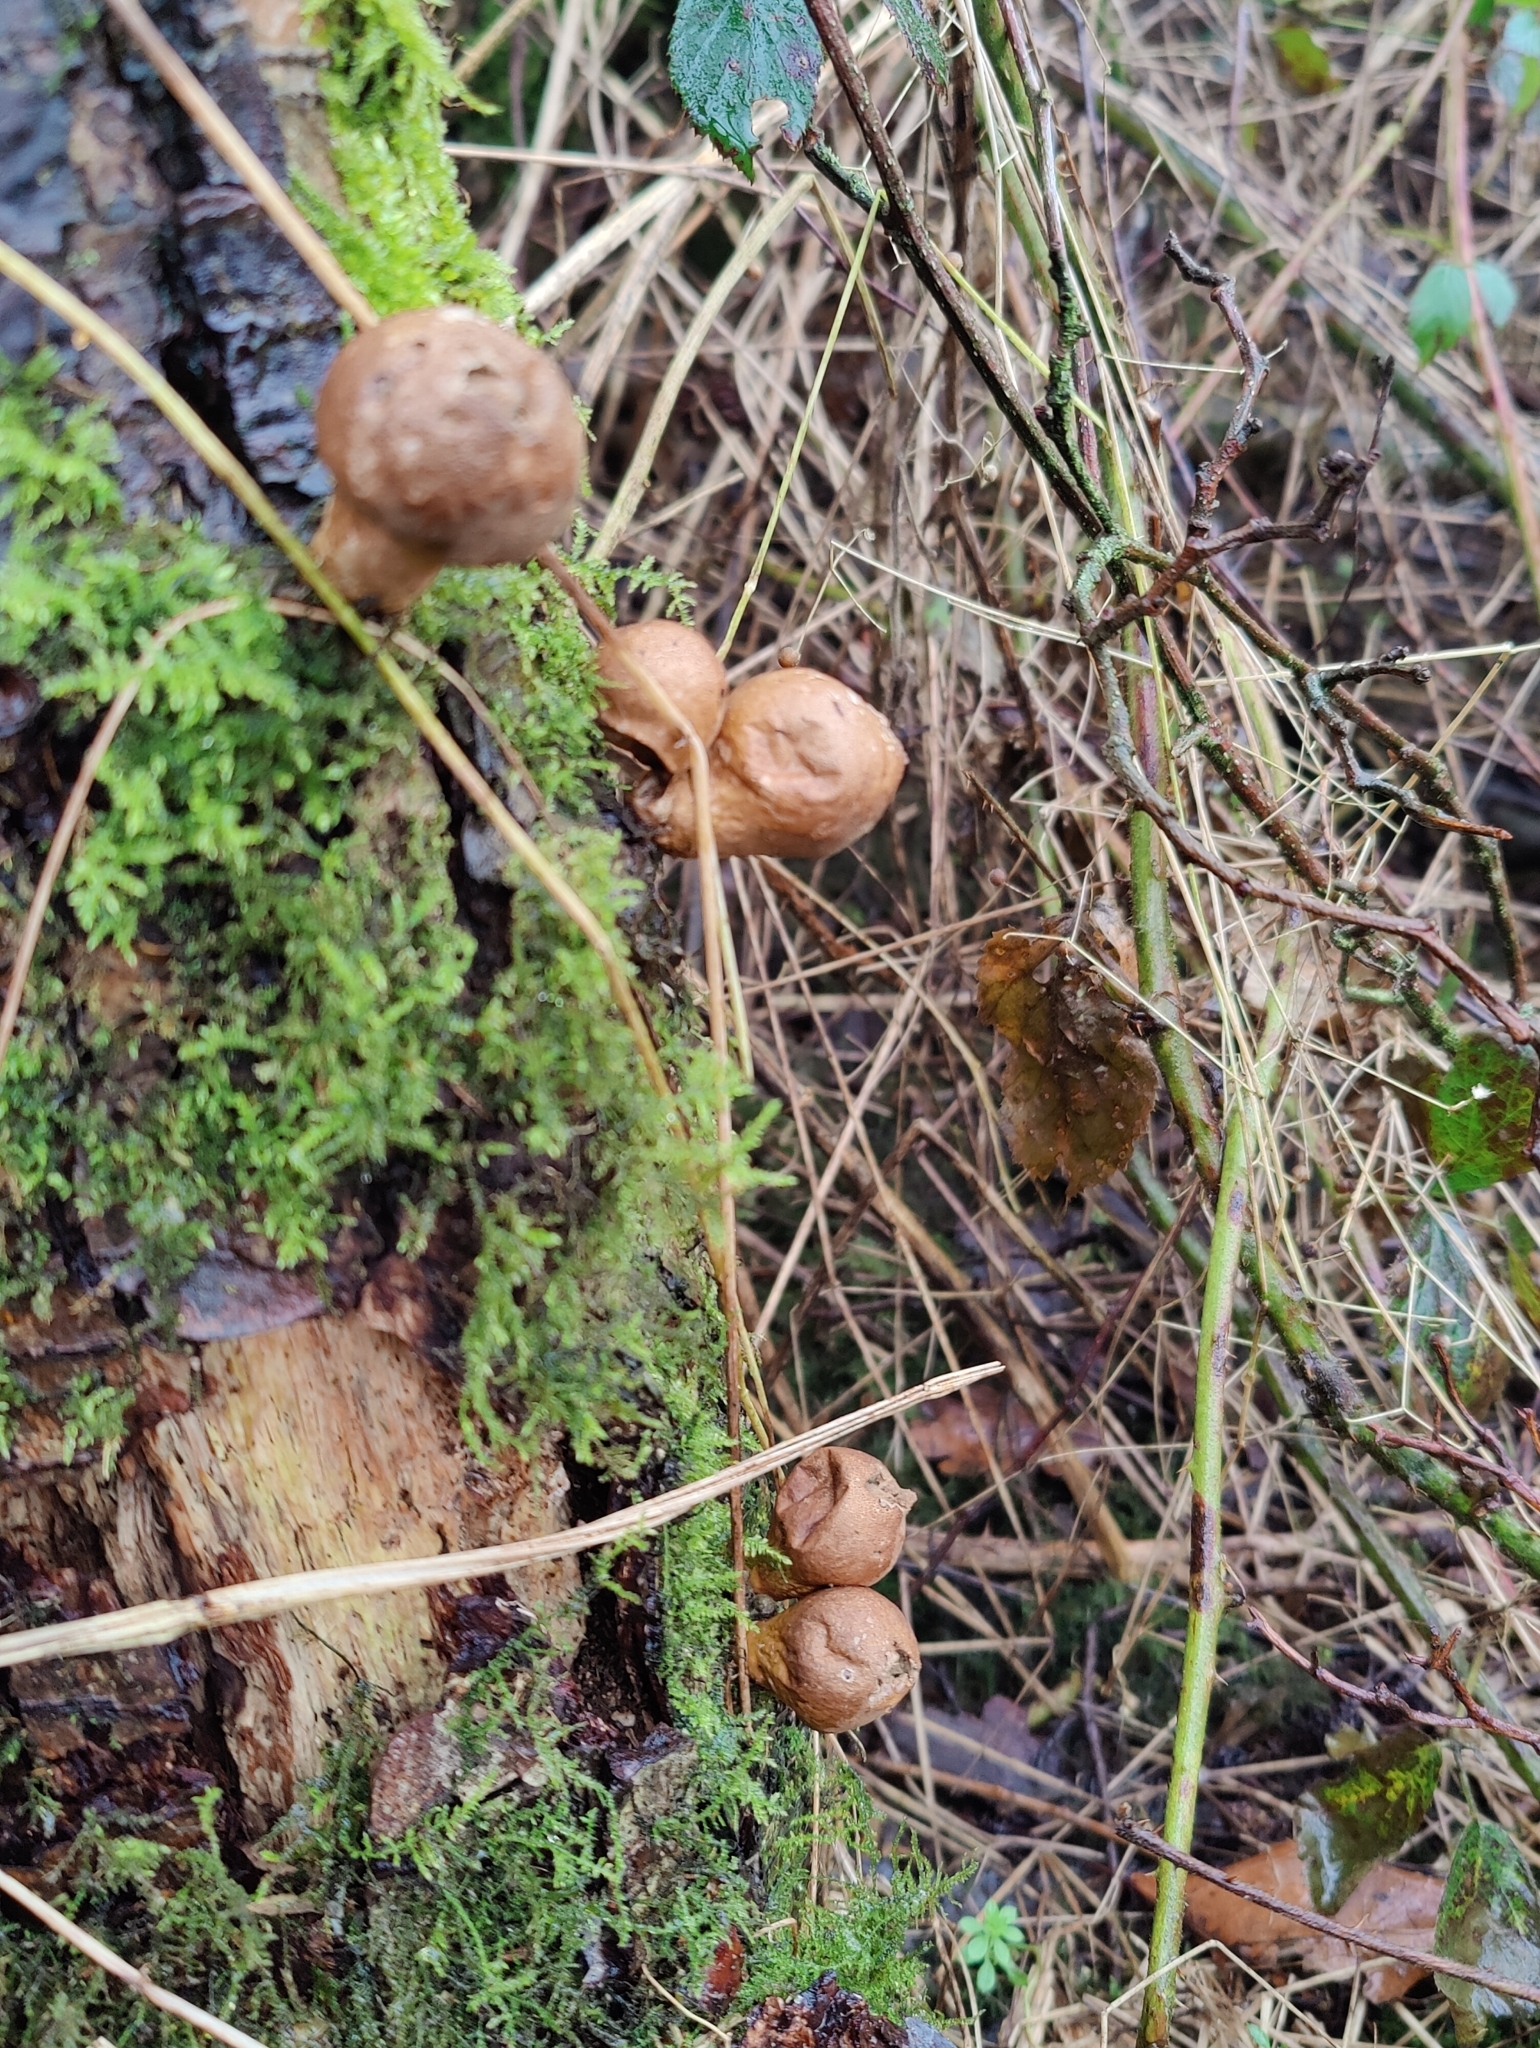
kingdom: Fungi
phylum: Basidiomycota
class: Agaricomycetes
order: Agaricales
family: Lycoperdaceae
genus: Apioperdon
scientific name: Apioperdon pyriforme
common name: Pear-shaped puffball
